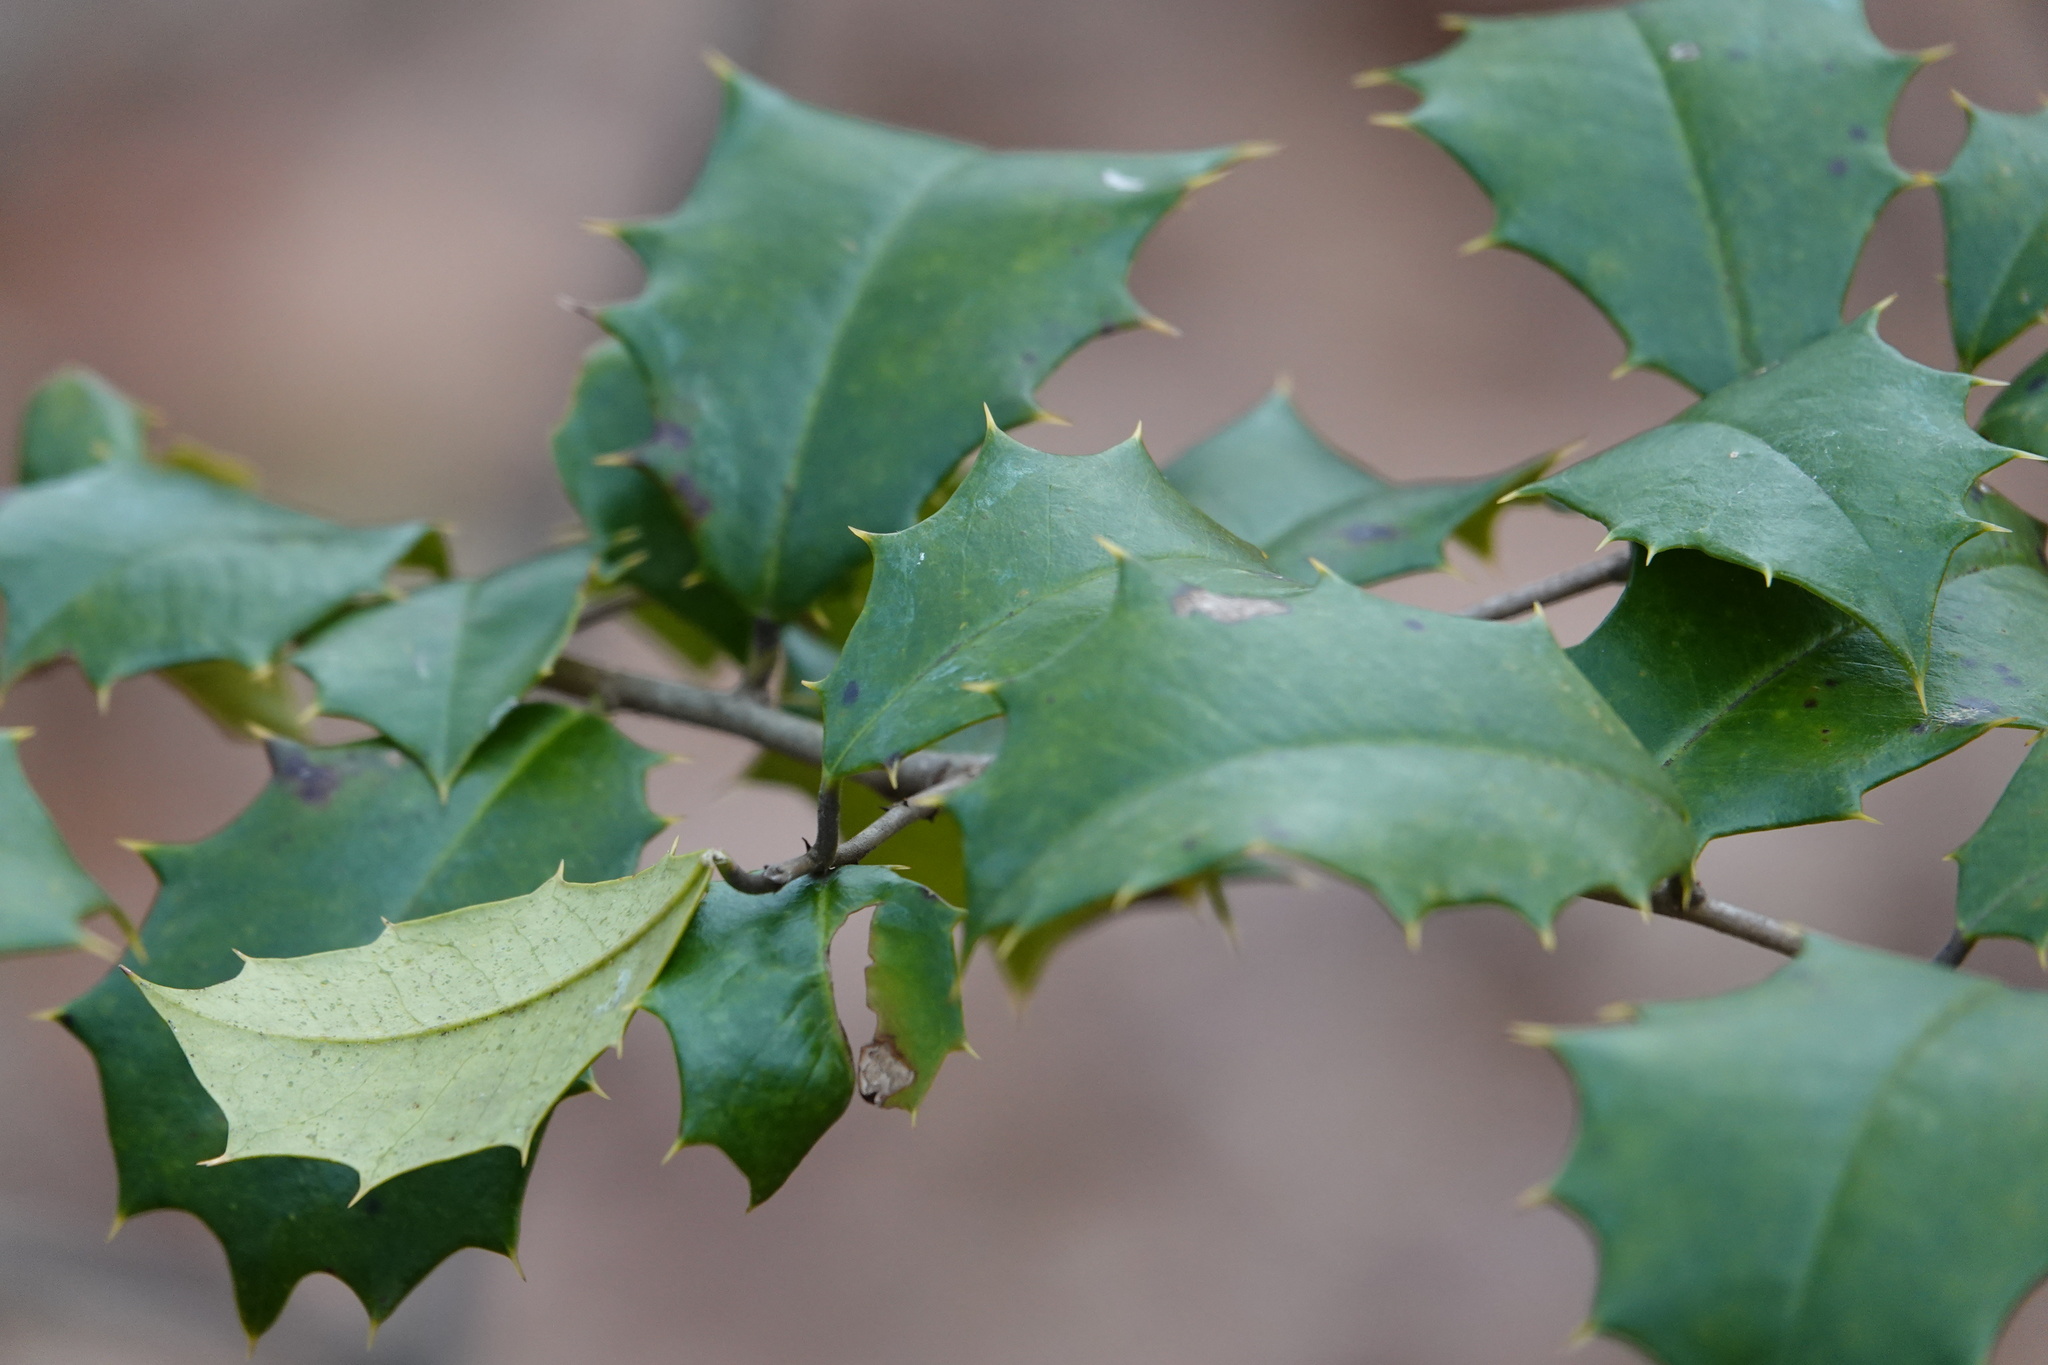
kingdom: Plantae
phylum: Tracheophyta
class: Magnoliopsida
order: Aquifoliales
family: Aquifoliaceae
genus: Ilex
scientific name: Ilex opaca
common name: American holly
